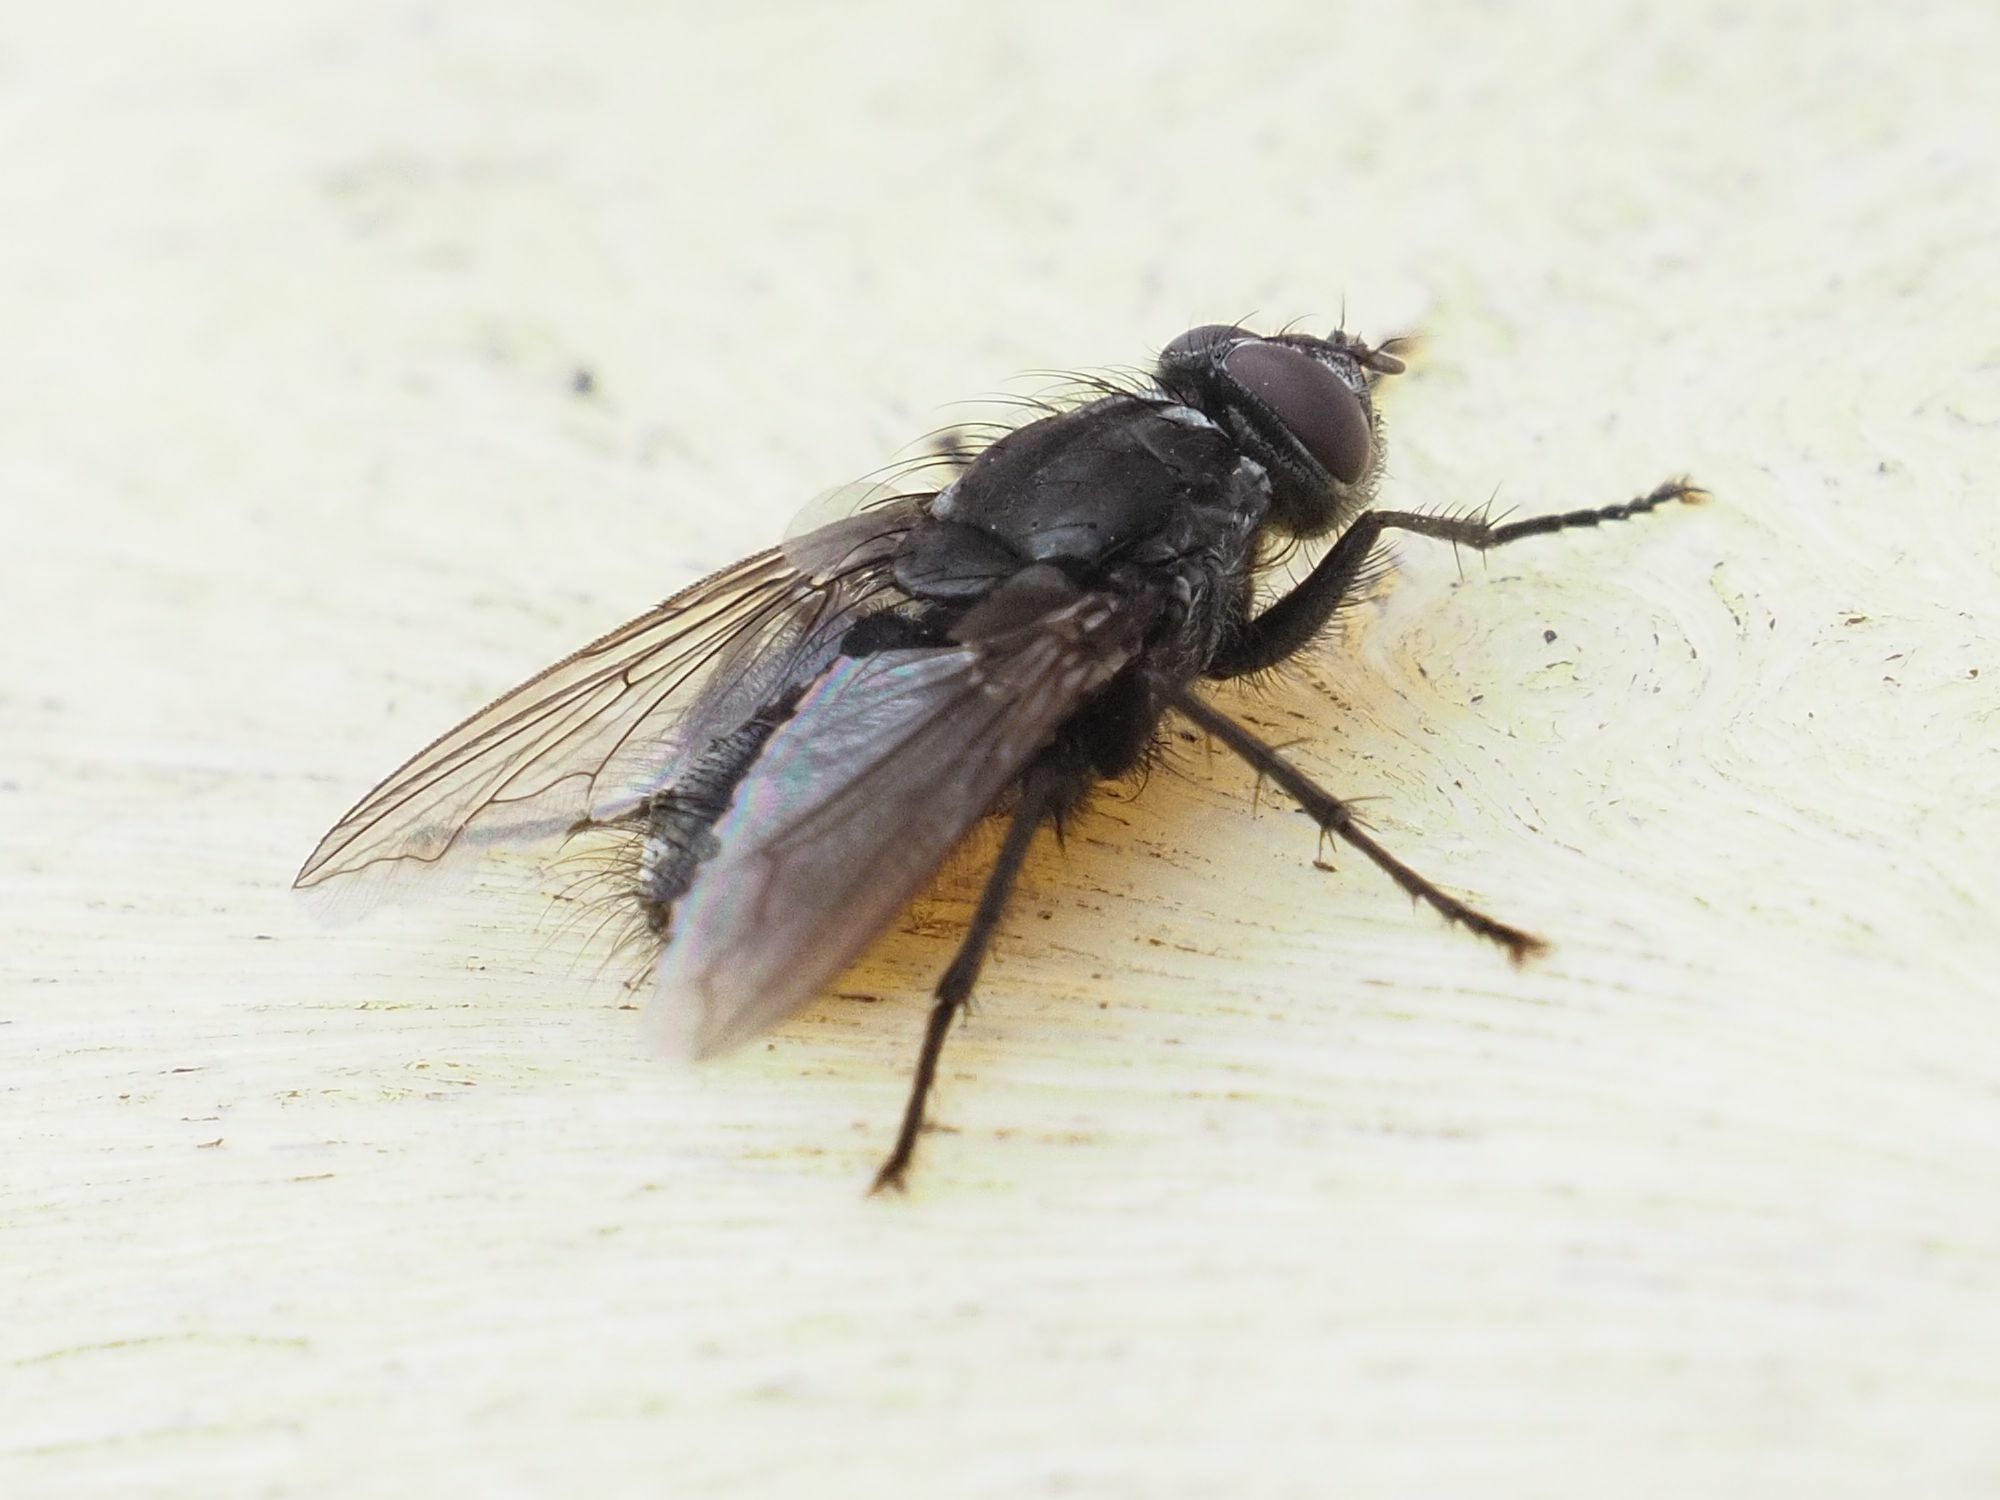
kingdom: Animalia
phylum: Arthropoda
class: Insecta
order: Diptera
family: Polleniidae
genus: Pollenia
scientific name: Pollenia vagabunda
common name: Vagabund cluster fly
